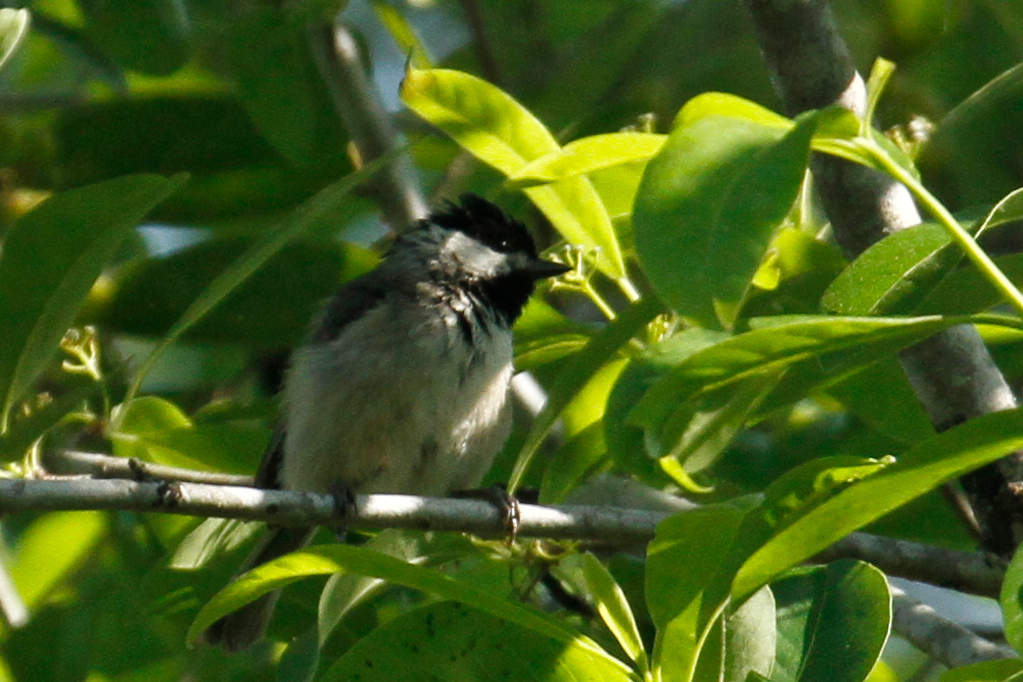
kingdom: Animalia
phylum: Chordata
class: Aves
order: Passeriformes
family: Paridae
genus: Poecile
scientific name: Poecile carolinensis
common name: Carolina chickadee
